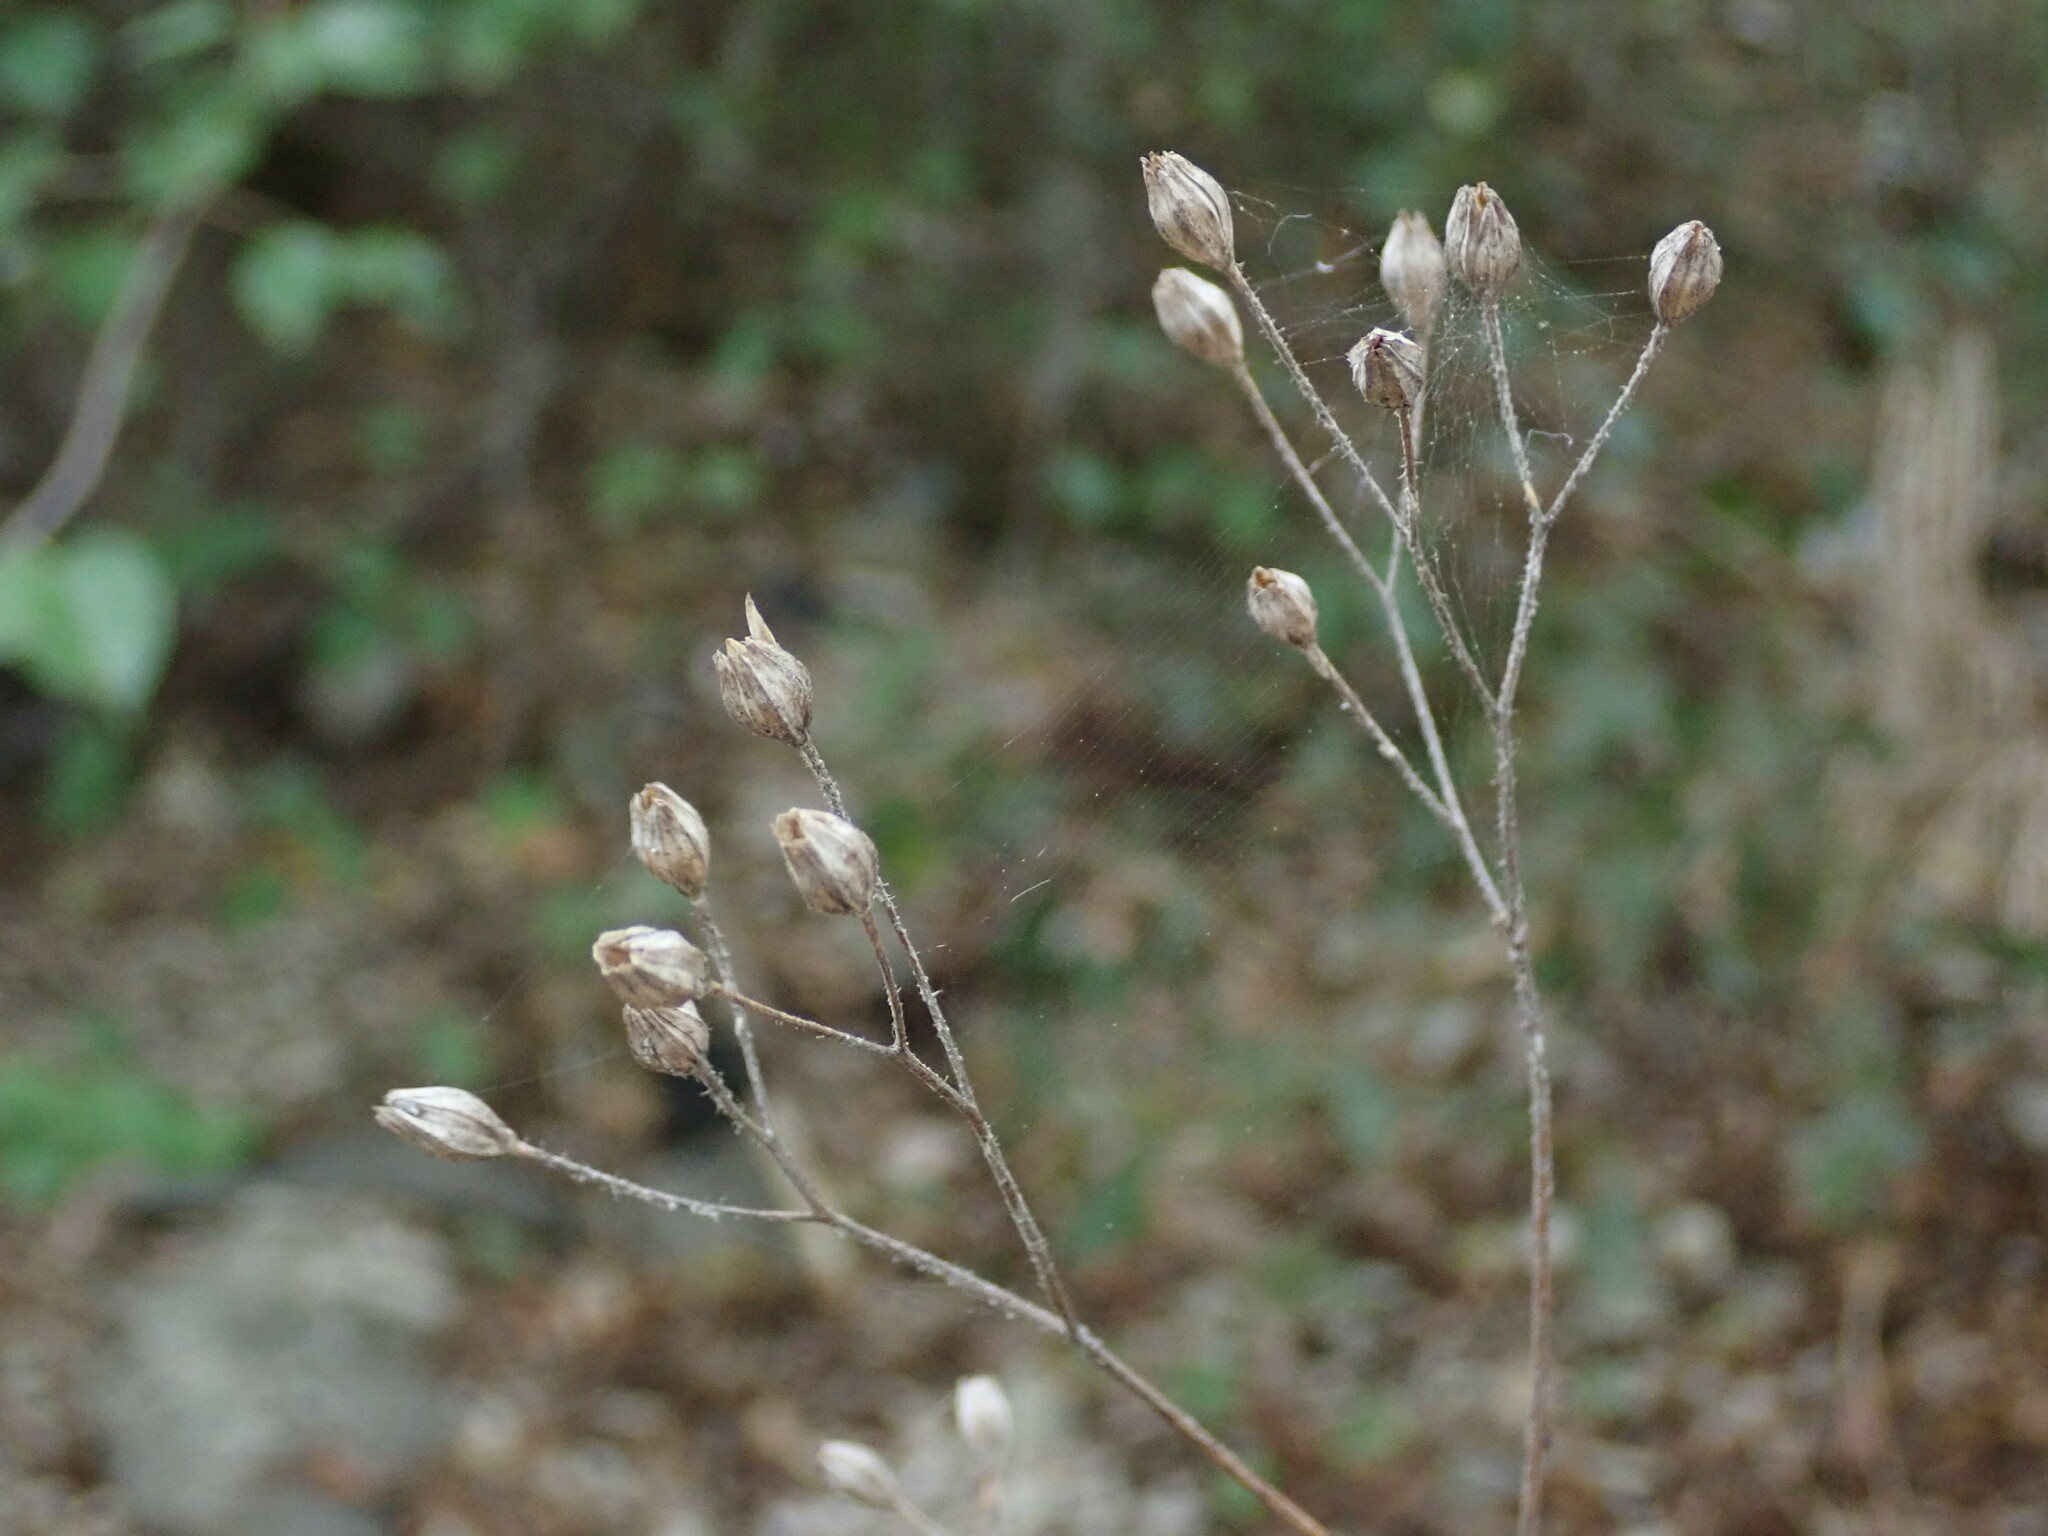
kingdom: Plantae
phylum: Tracheophyta
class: Magnoliopsida
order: Asterales
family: Asteraceae
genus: Lapsana
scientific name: Lapsana communis
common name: Nipplewort
